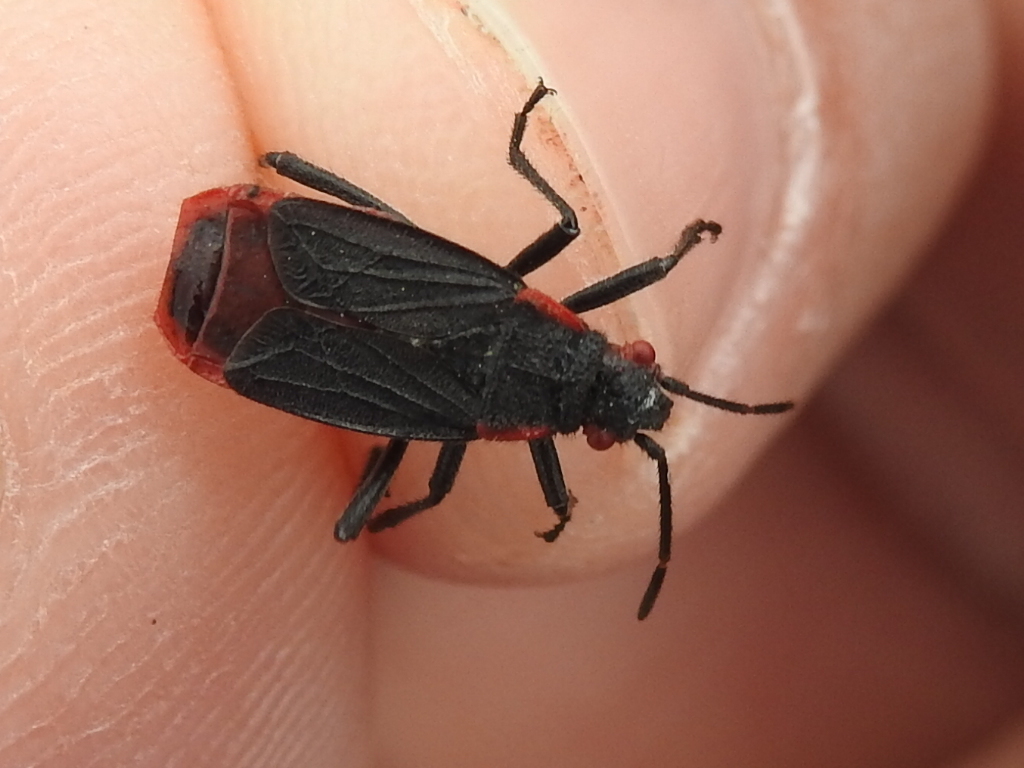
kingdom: Animalia
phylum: Arthropoda
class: Insecta
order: Hemiptera
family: Rhopalidae
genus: Jadera
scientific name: Jadera haematoloma
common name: Red-shouldered bug
